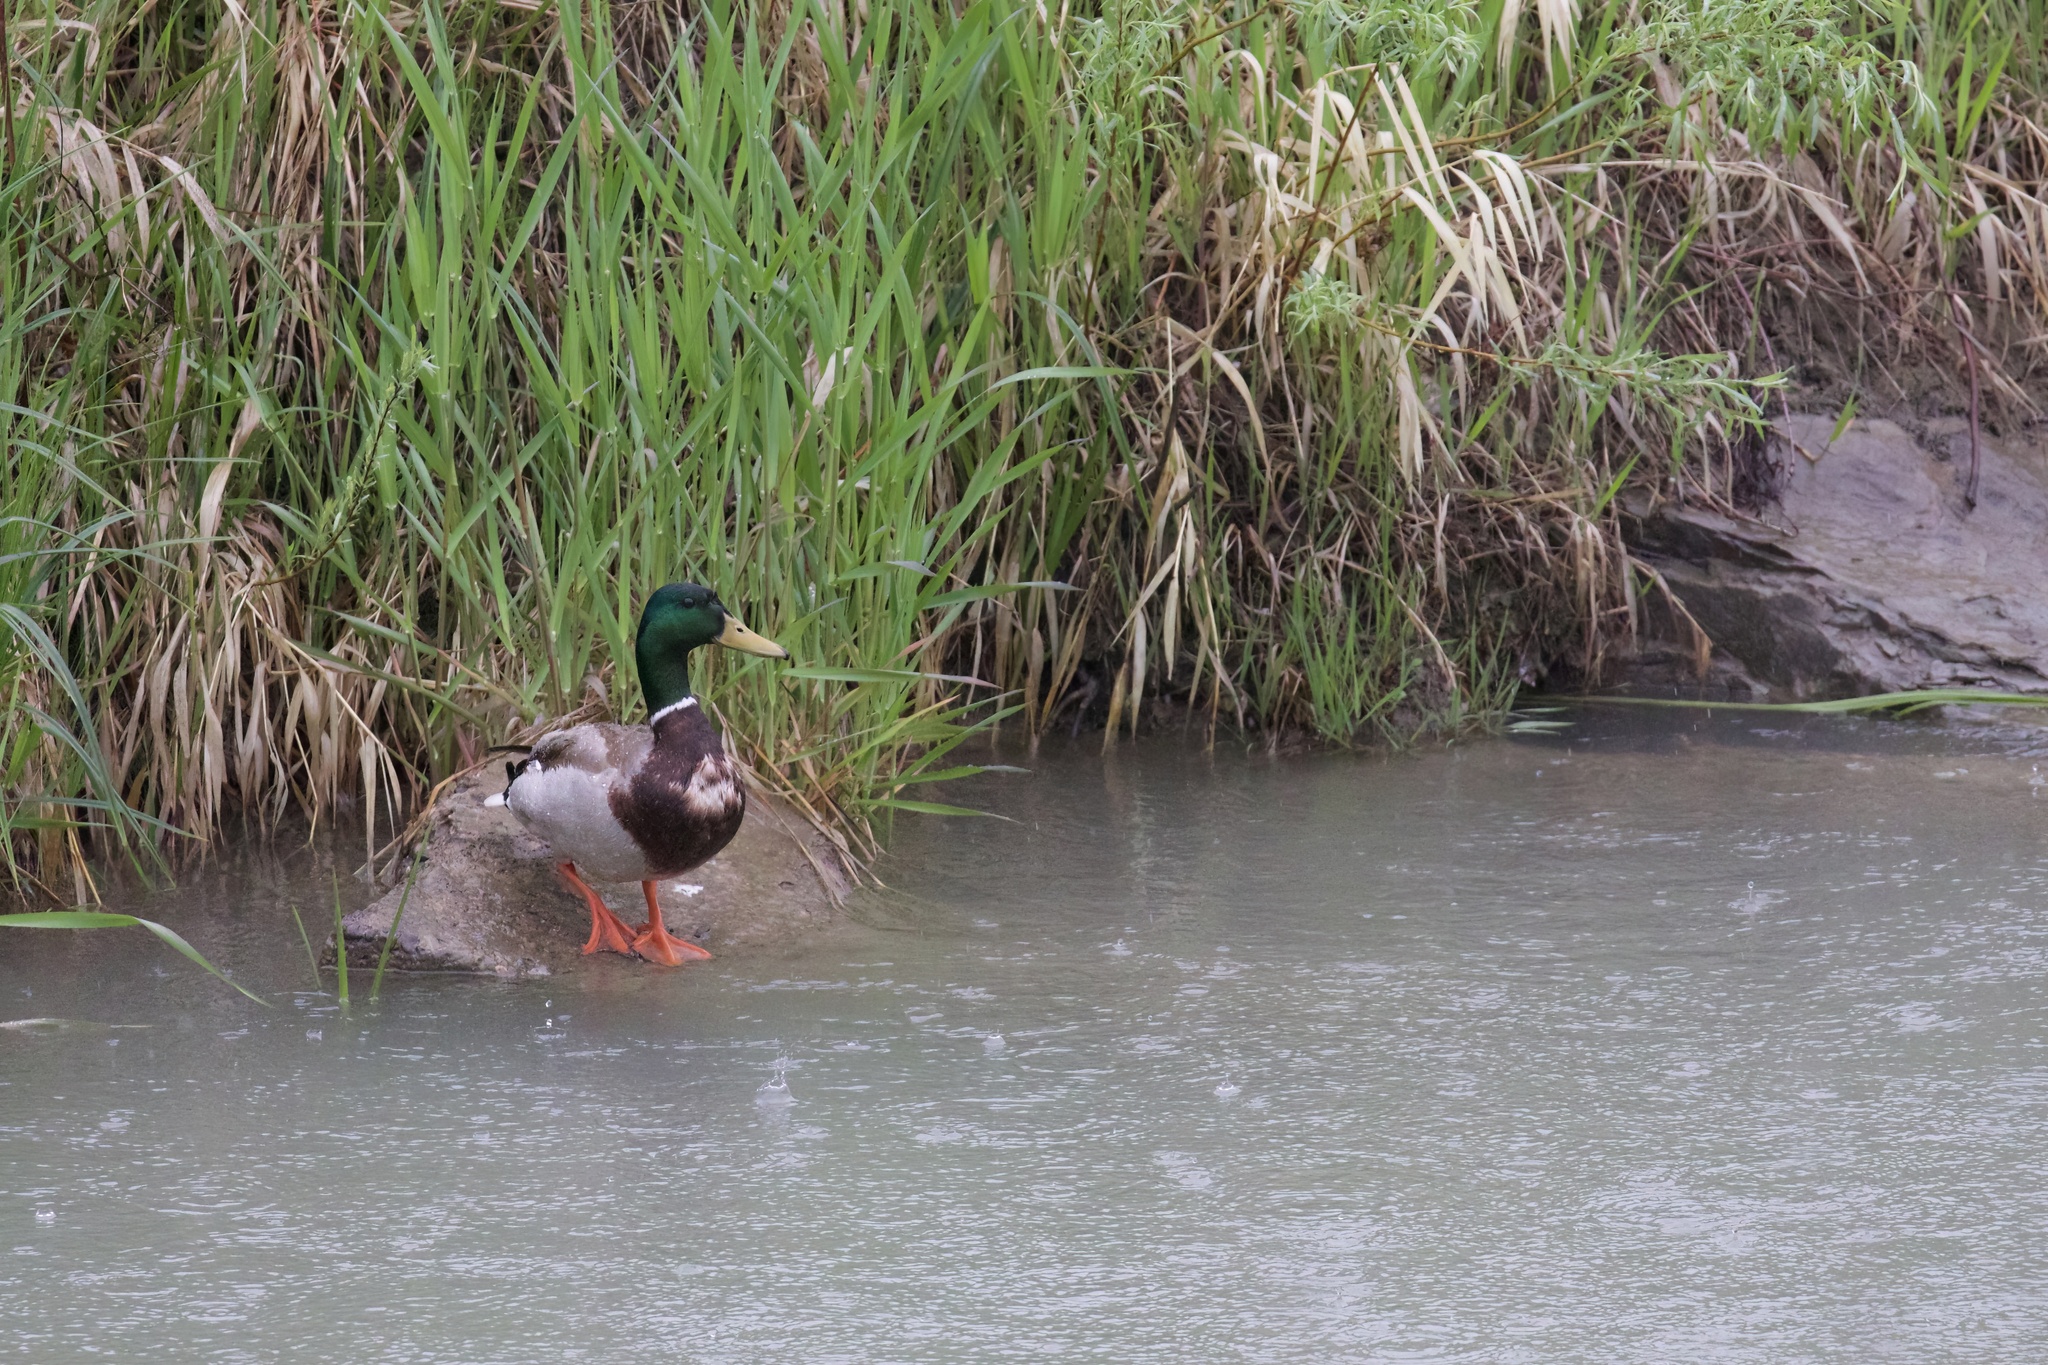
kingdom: Animalia
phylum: Chordata
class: Aves
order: Anseriformes
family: Anatidae
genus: Anas
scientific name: Anas platyrhynchos
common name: Mallard
